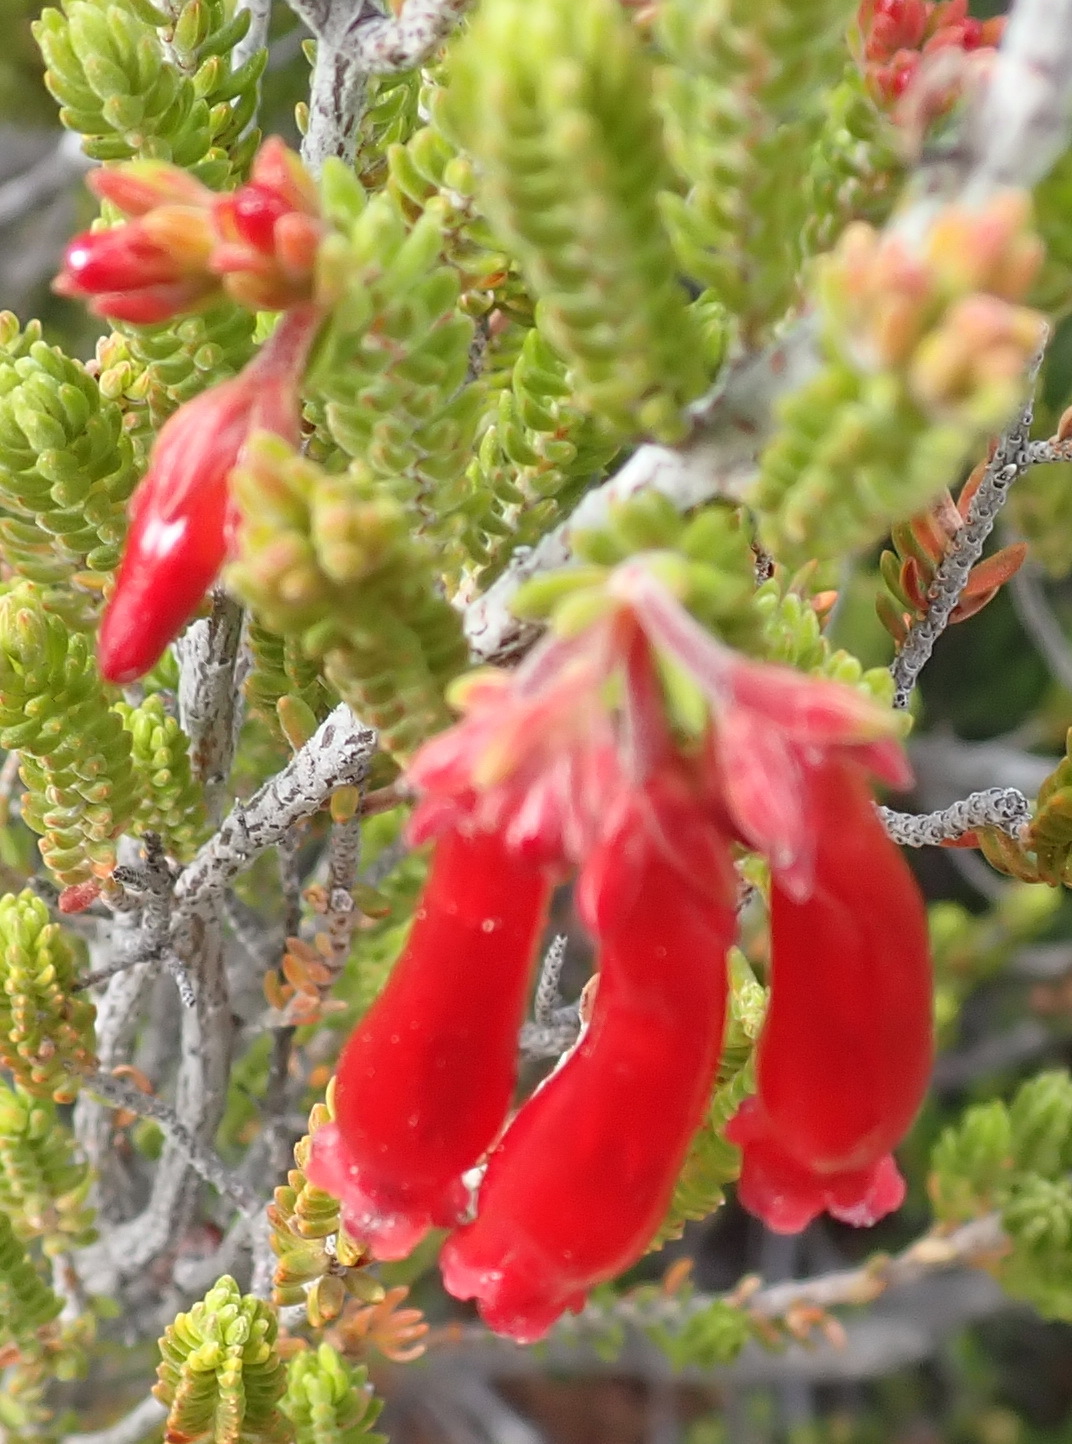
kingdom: Plantae
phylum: Tracheophyta
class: Magnoliopsida
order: Ericales
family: Ericaceae
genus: Erica
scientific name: Erica diaphana
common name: Heath
